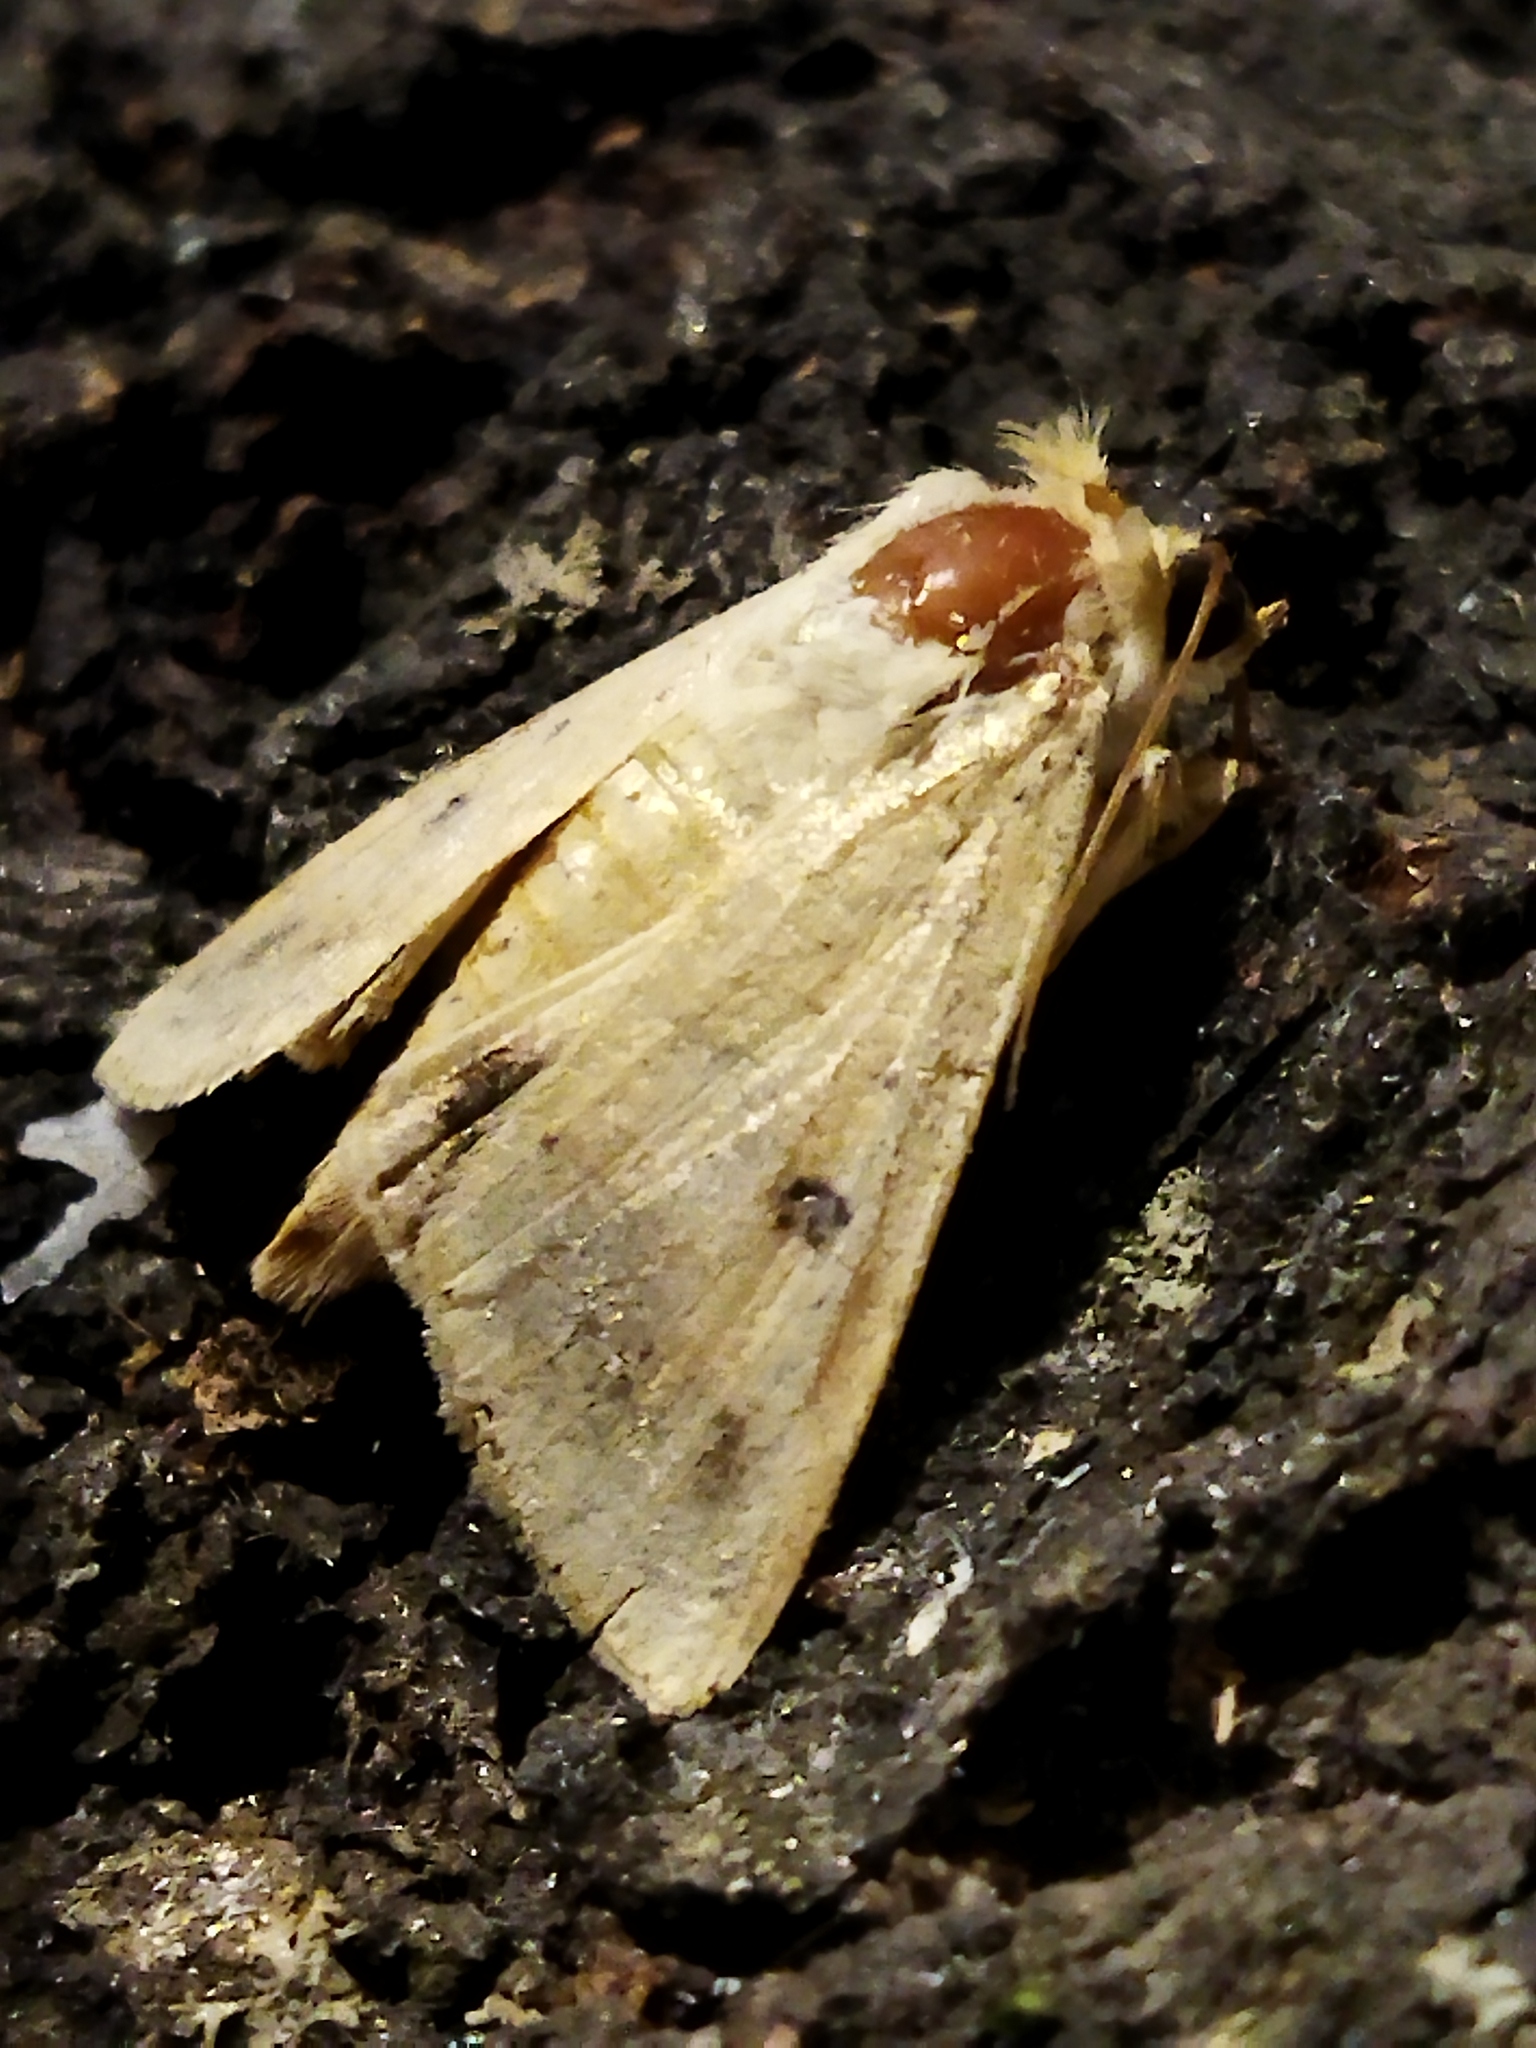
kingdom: Animalia
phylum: Arthropoda
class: Insecta
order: Lepidoptera
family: Noctuidae
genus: Helicoverpa
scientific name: Helicoverpa armigera
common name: Cotton bollworm
